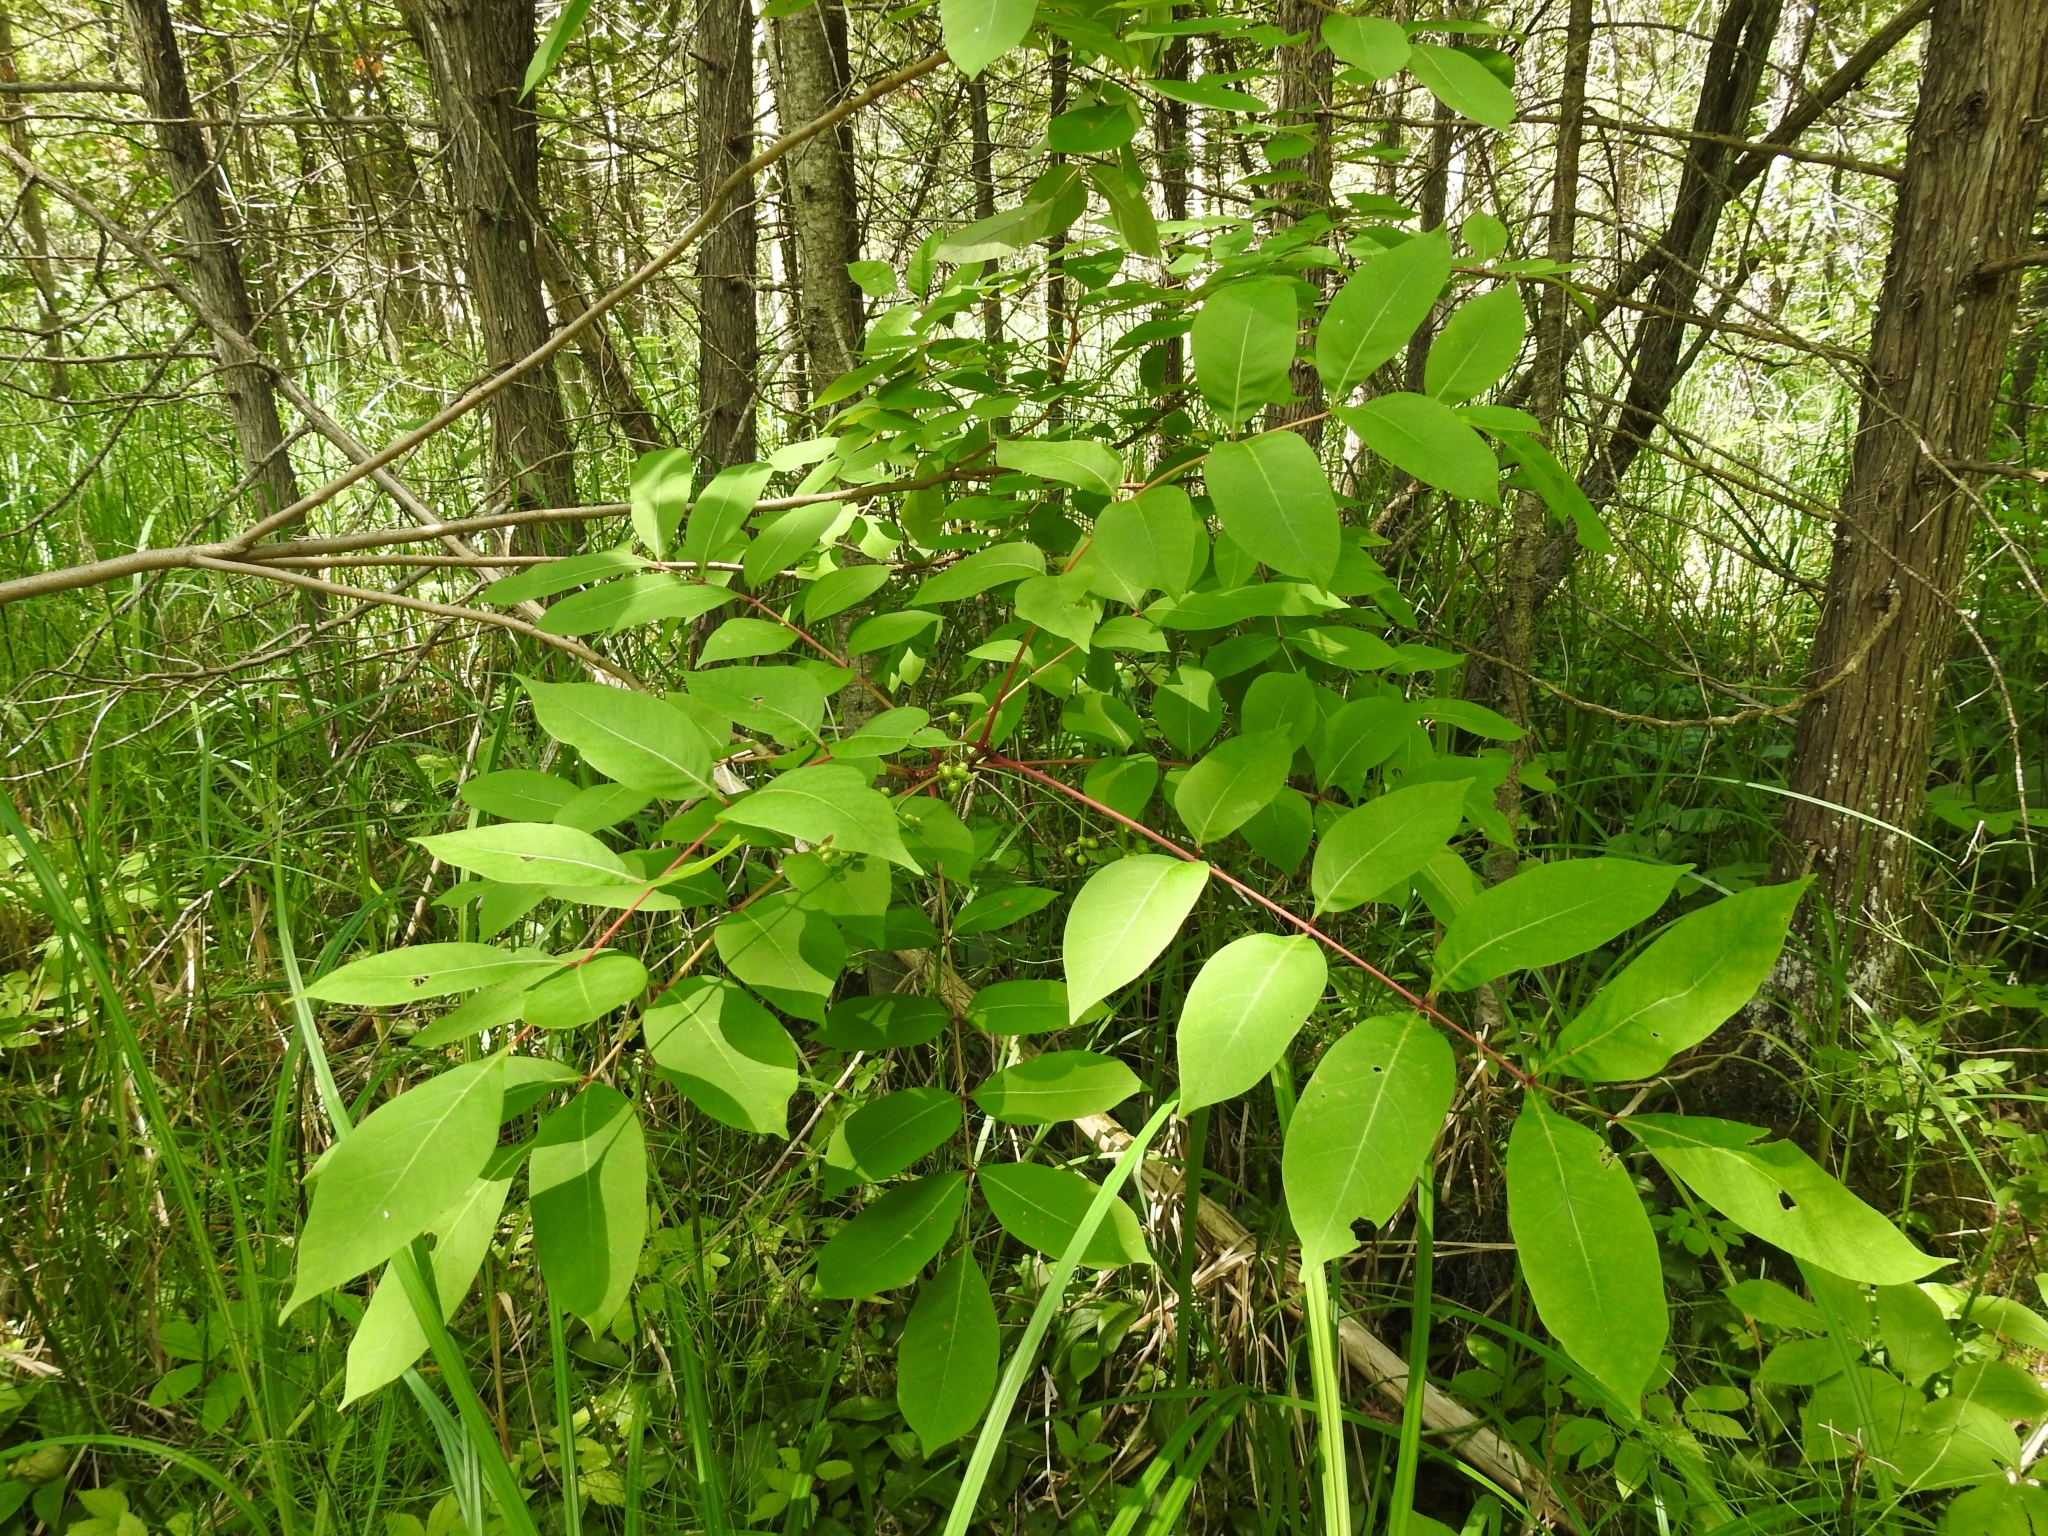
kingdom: Plantae
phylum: Tracheophyta
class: Magnoliopsida
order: Sapindales
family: Anacardiaceae
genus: Toxicodendron
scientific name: Toxicodendron vernix
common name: Poison sumac
